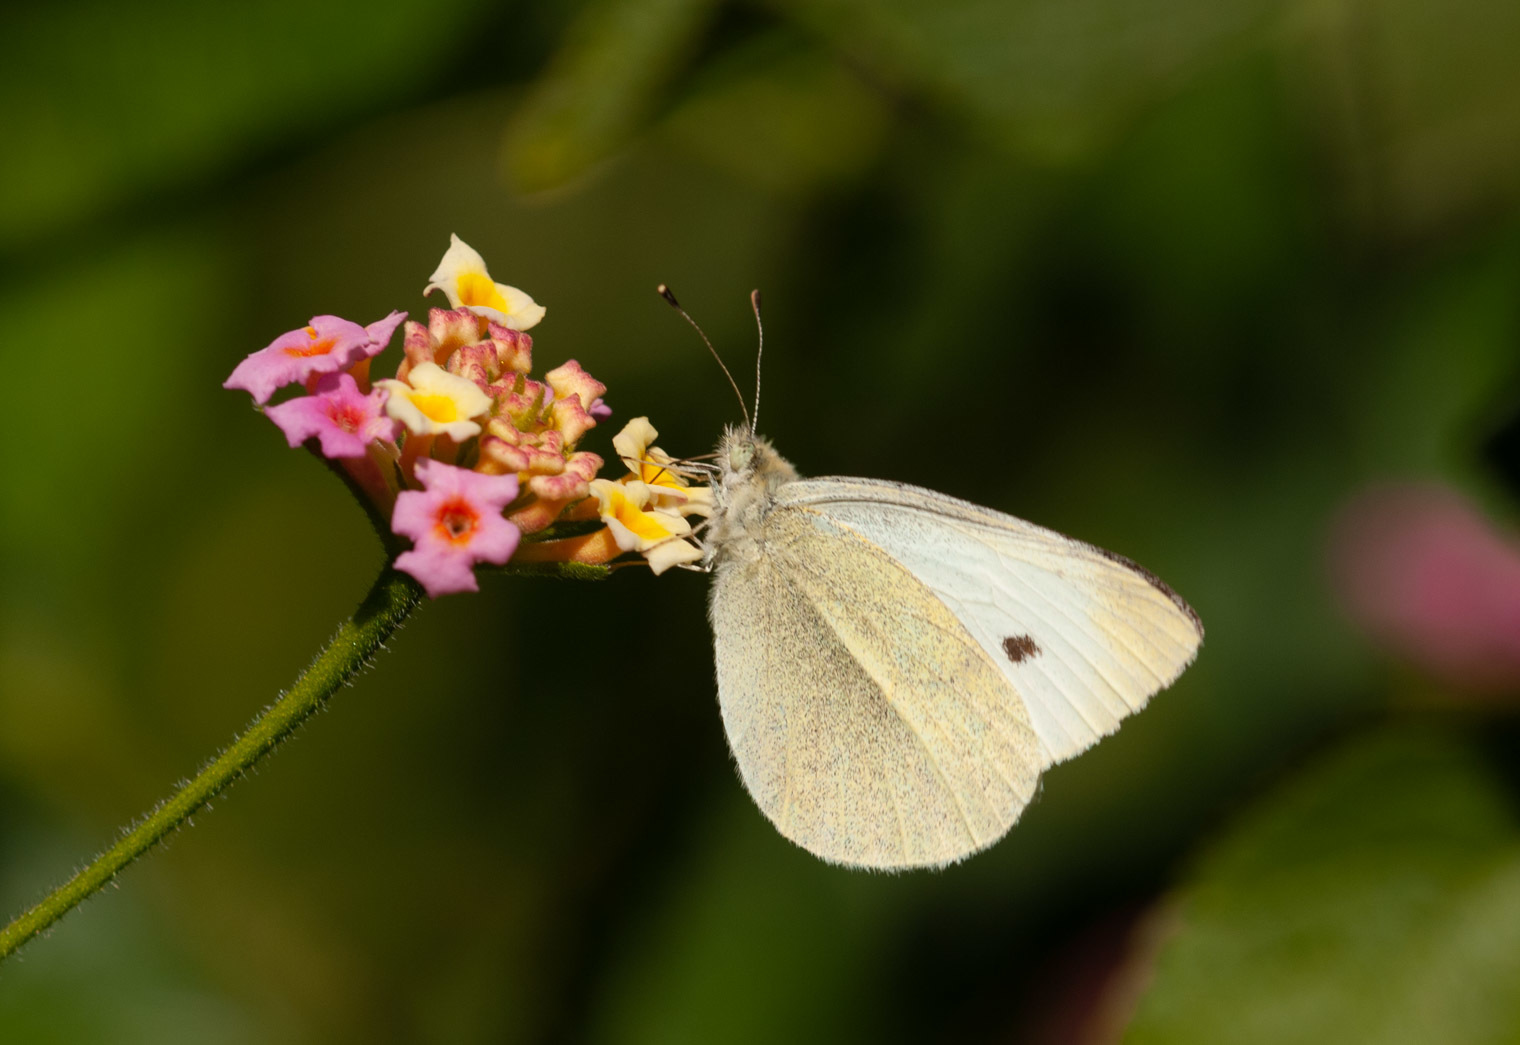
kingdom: Animalia
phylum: Arthropoda
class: Insecta
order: Lepidoptera
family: Pieridae
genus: Pieris
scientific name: Pieris rapae
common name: Small white
